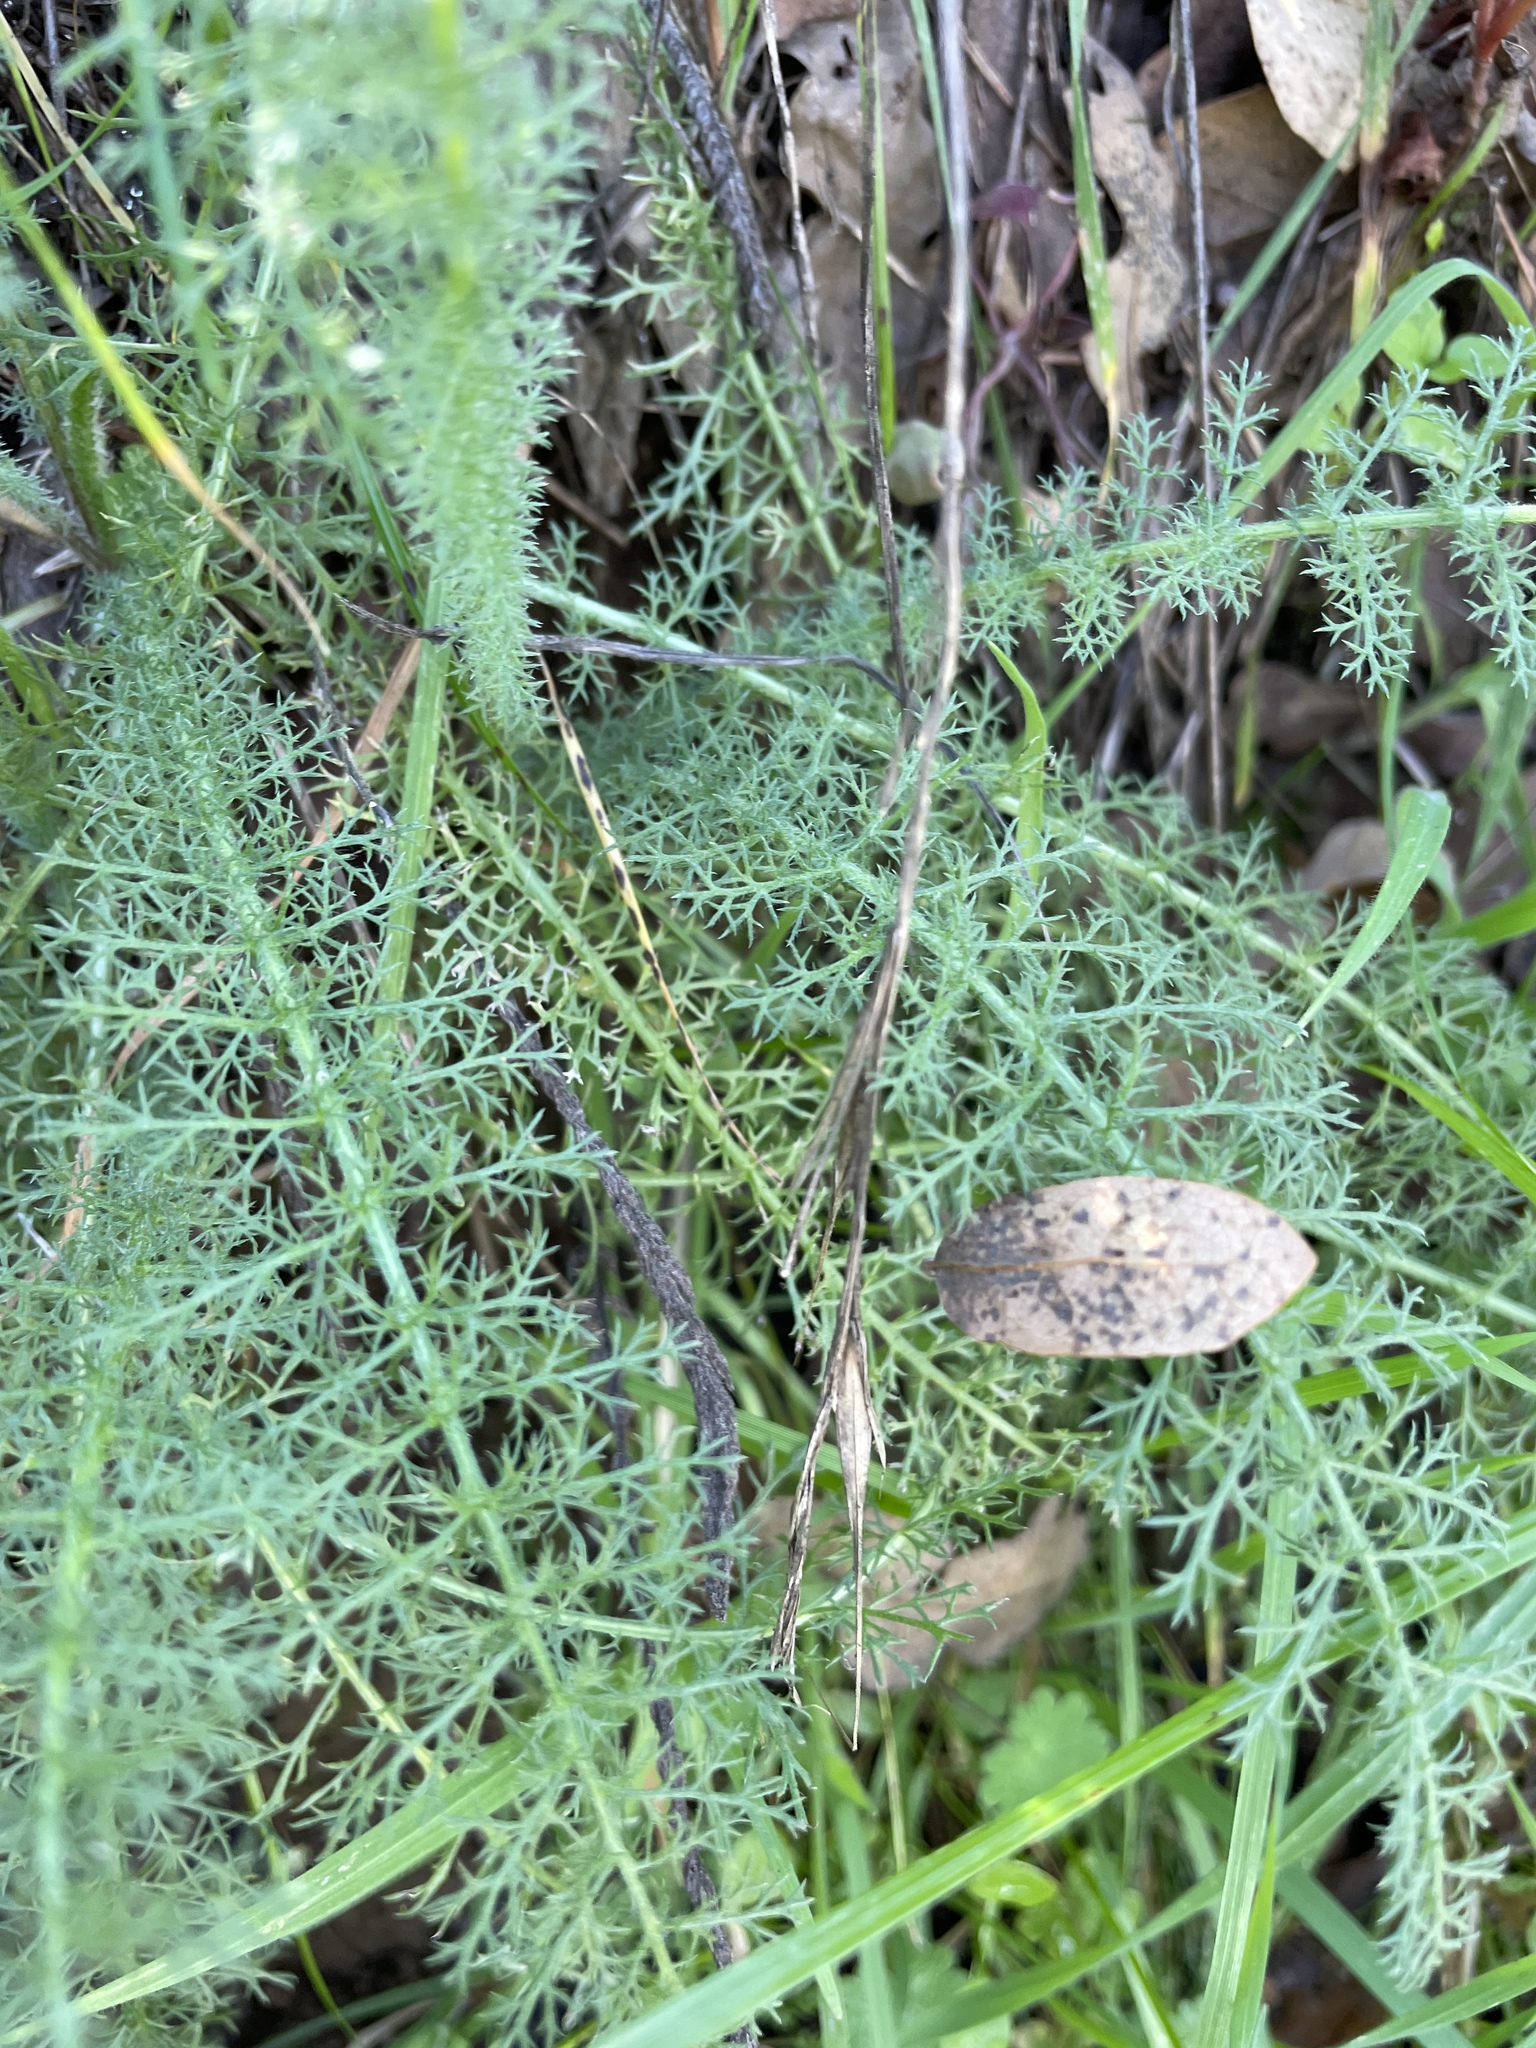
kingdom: Plantae
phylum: Tracheophyta
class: Magnoliopsida
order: Asterales
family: Asteraceae
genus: Achillea
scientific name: Achillea millefolium
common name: Yarrow
